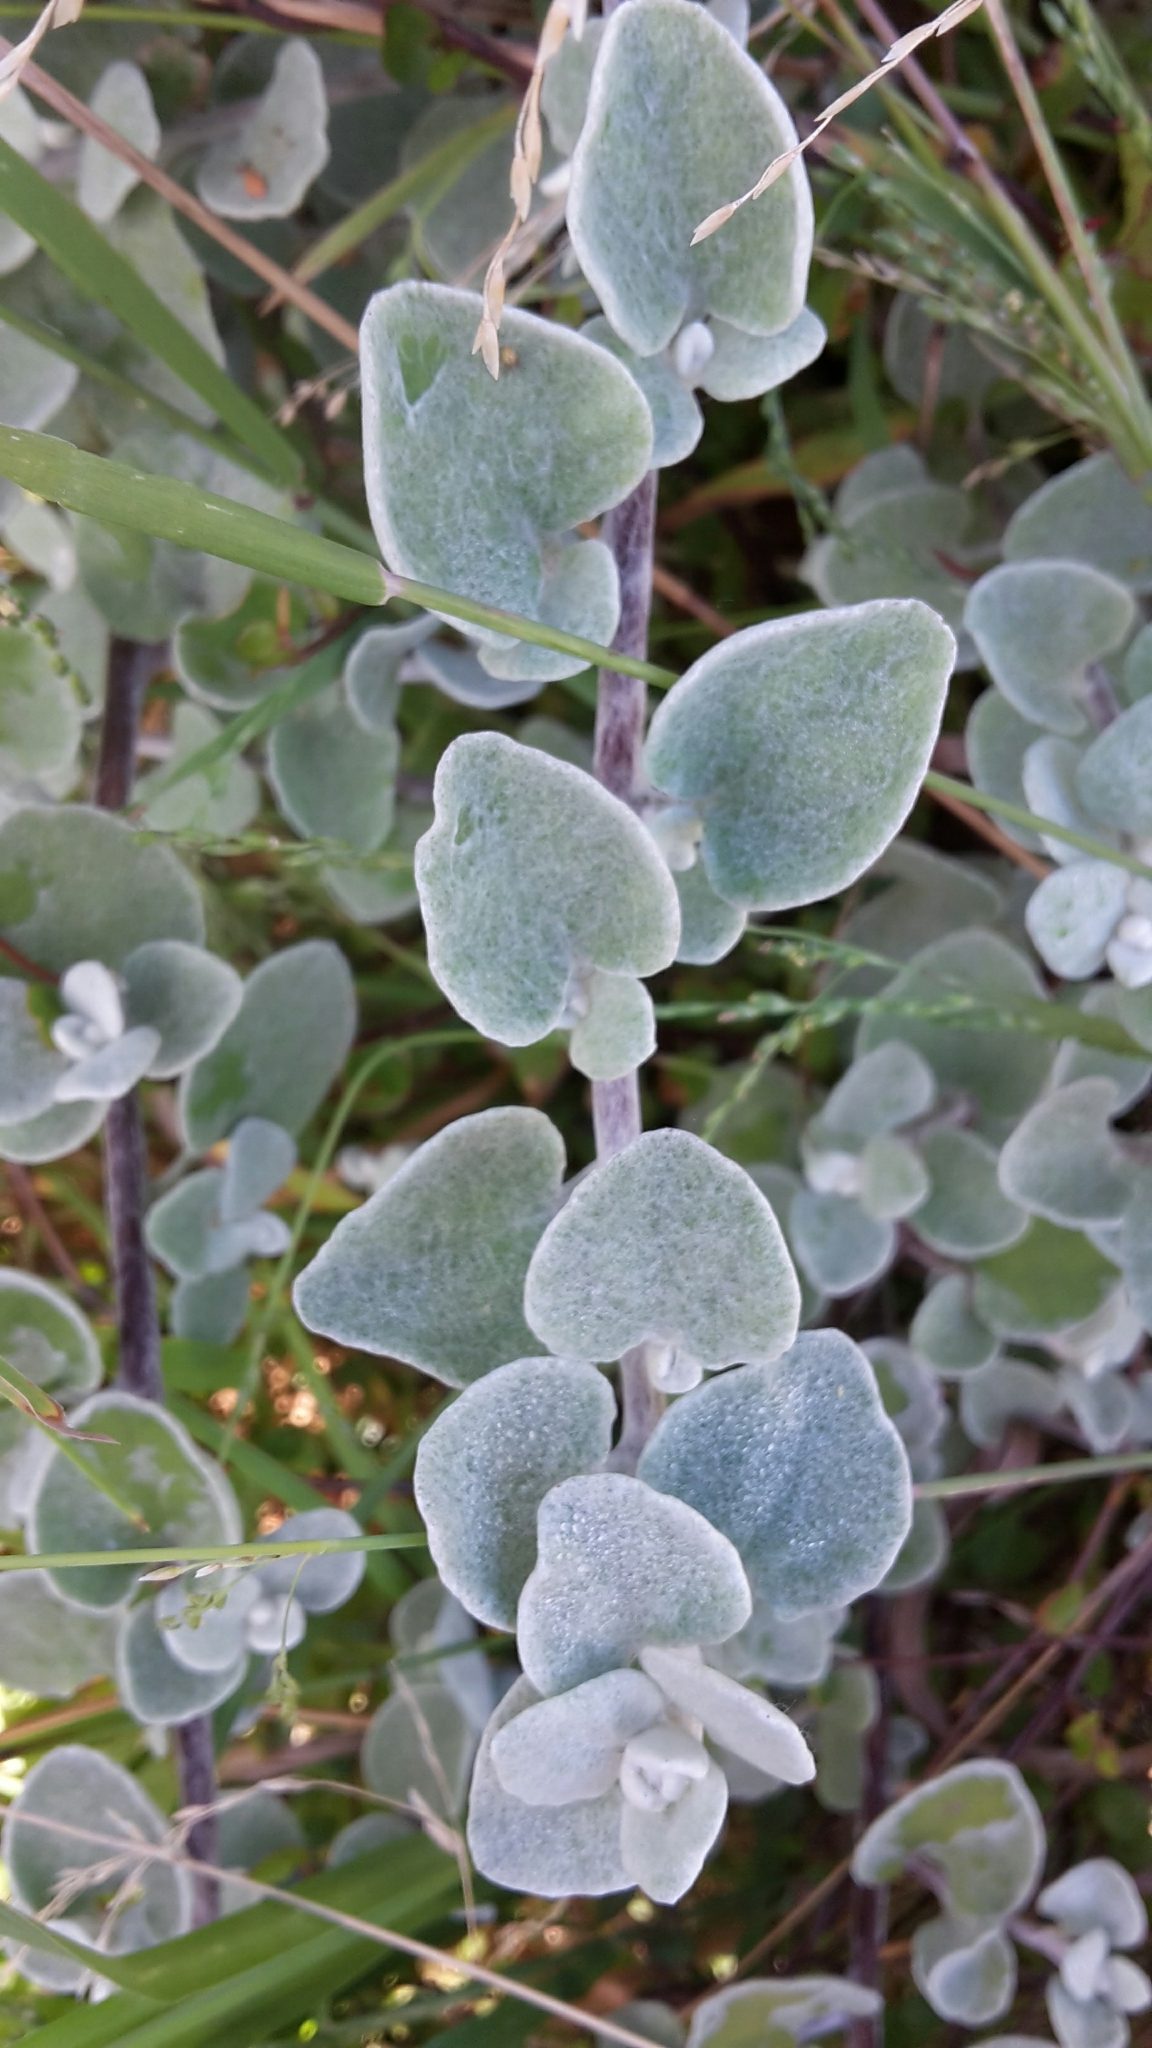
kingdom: Plantae
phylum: Tracheophyta
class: Magnoliopsida
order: Asterales
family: Asteraceae
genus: Helichrysum
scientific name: Helichrysum petiolare
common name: Licorice-plant
